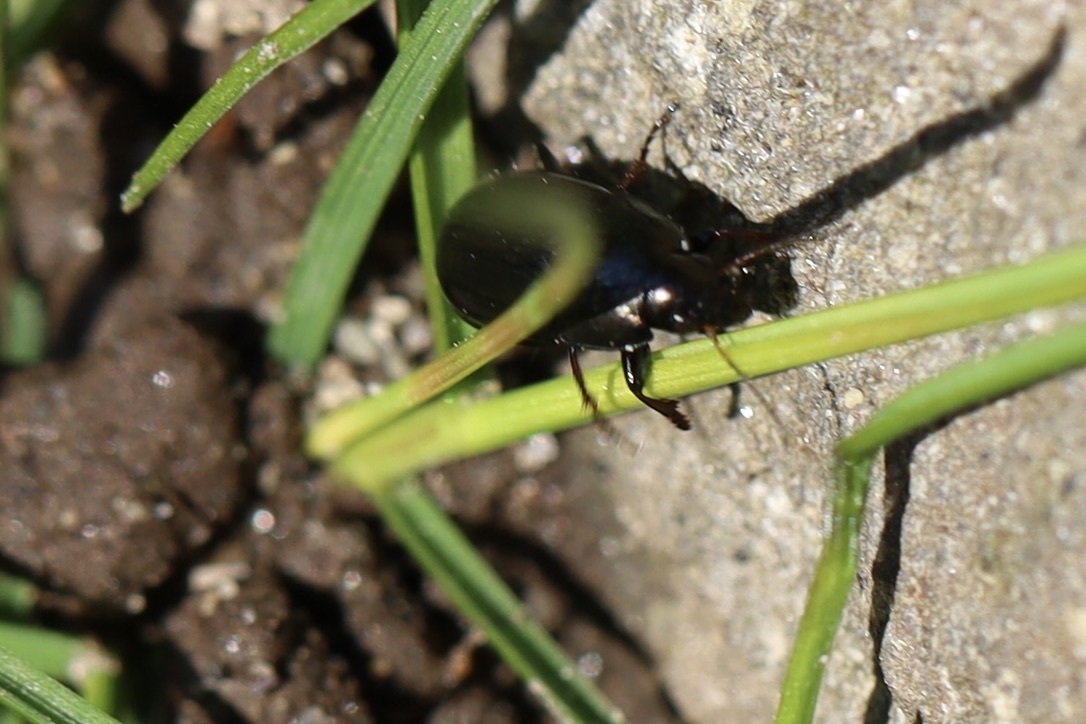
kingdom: Animalia
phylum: Arthropoda
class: Insecta
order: Coleoptera
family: Carabidae
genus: Amara
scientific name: Amara
